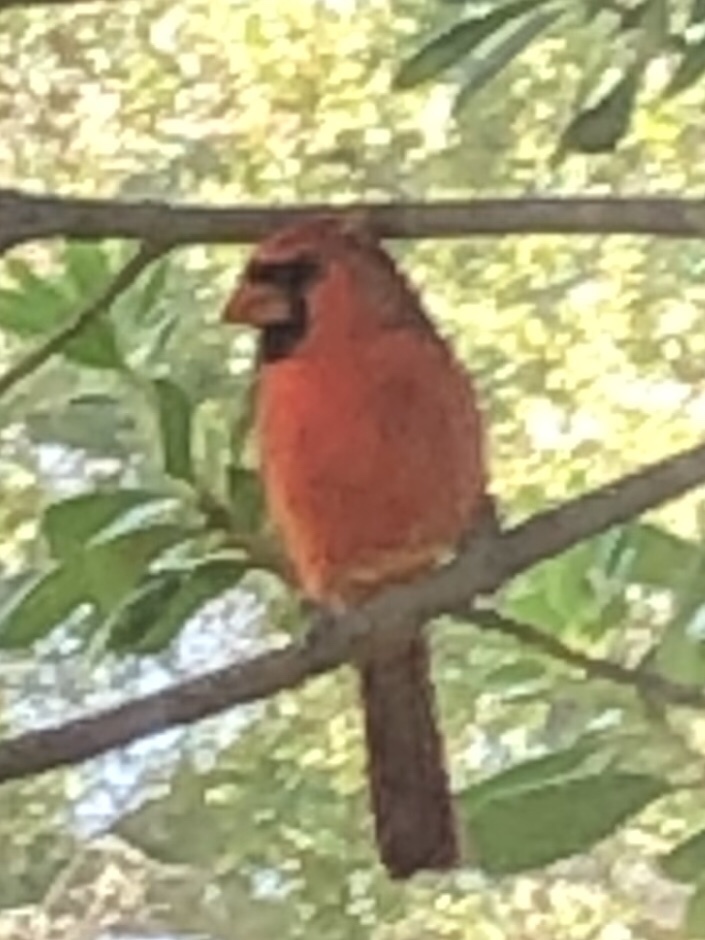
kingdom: Animalia
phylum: Chordata
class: Aves
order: Passeriformes
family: Cardinalidae
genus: Cardinalis
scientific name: Cardinalis cardinalis
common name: Northern cardinal
